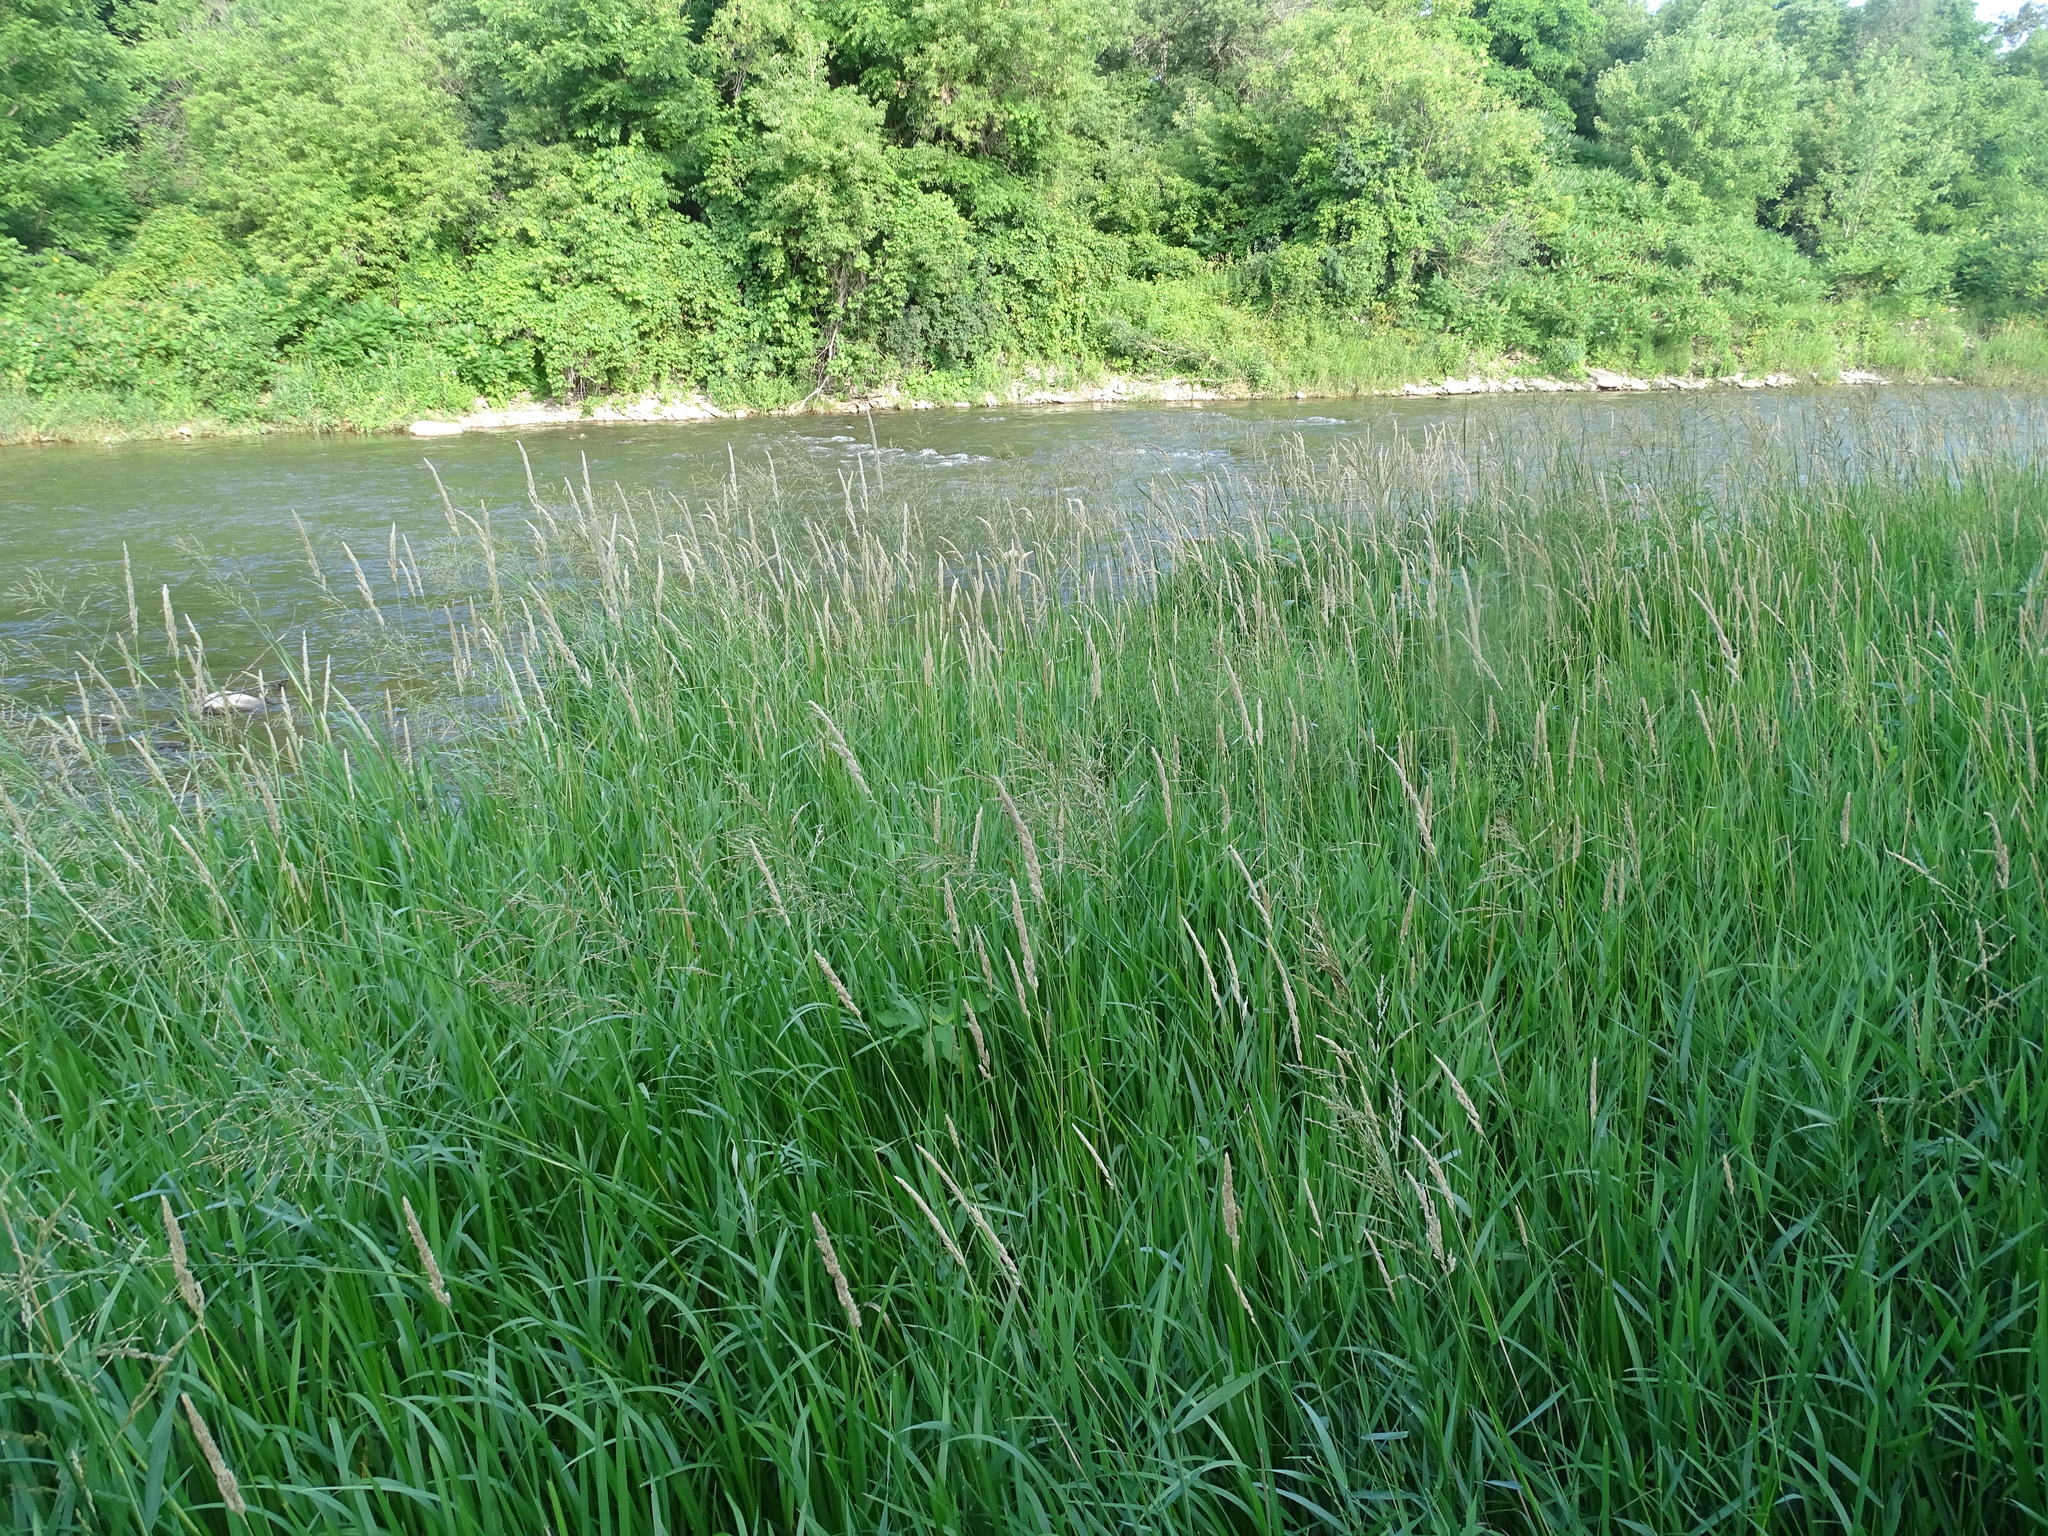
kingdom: Plantae
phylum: Tracheophyta
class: Liliopsida
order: Poales
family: Poaceae
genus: Phalaris
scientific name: Phalaris arundinacea
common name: Reed canary-grass
